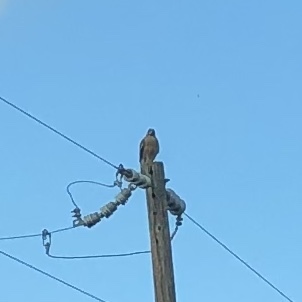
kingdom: Animalia
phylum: Chordata
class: Aves
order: Accipitriformes
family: Accipitridae
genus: Buteo
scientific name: Buteo lineatus
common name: Red-shouldered hawk
